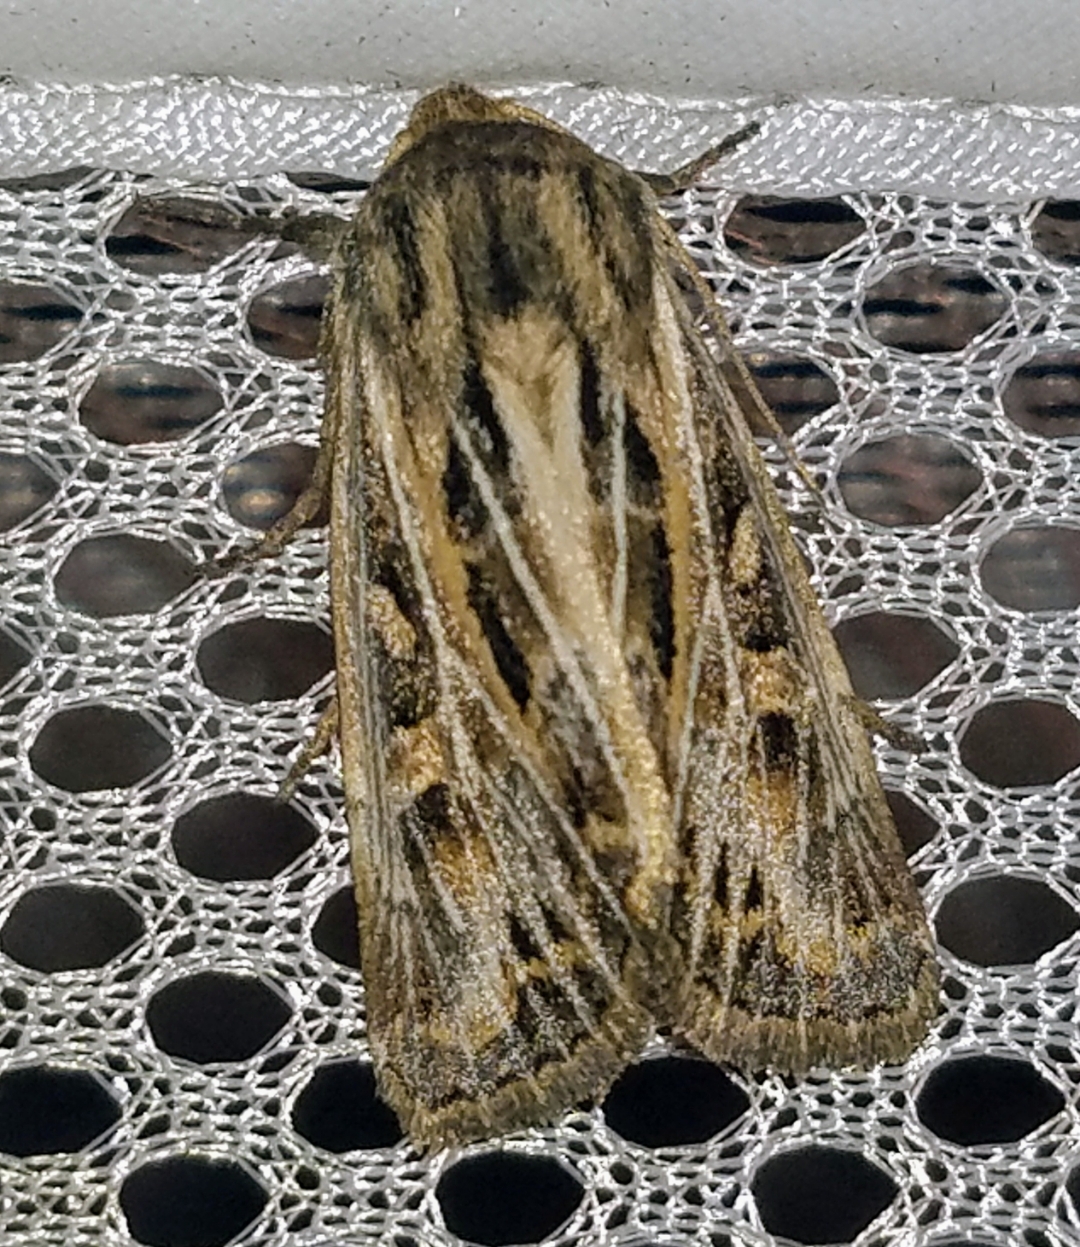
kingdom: Animalia
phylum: Arthropoda
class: Insecta
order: Lepidoptera
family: Noctuidae
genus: Apamea
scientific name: Apamea niveivenosa
